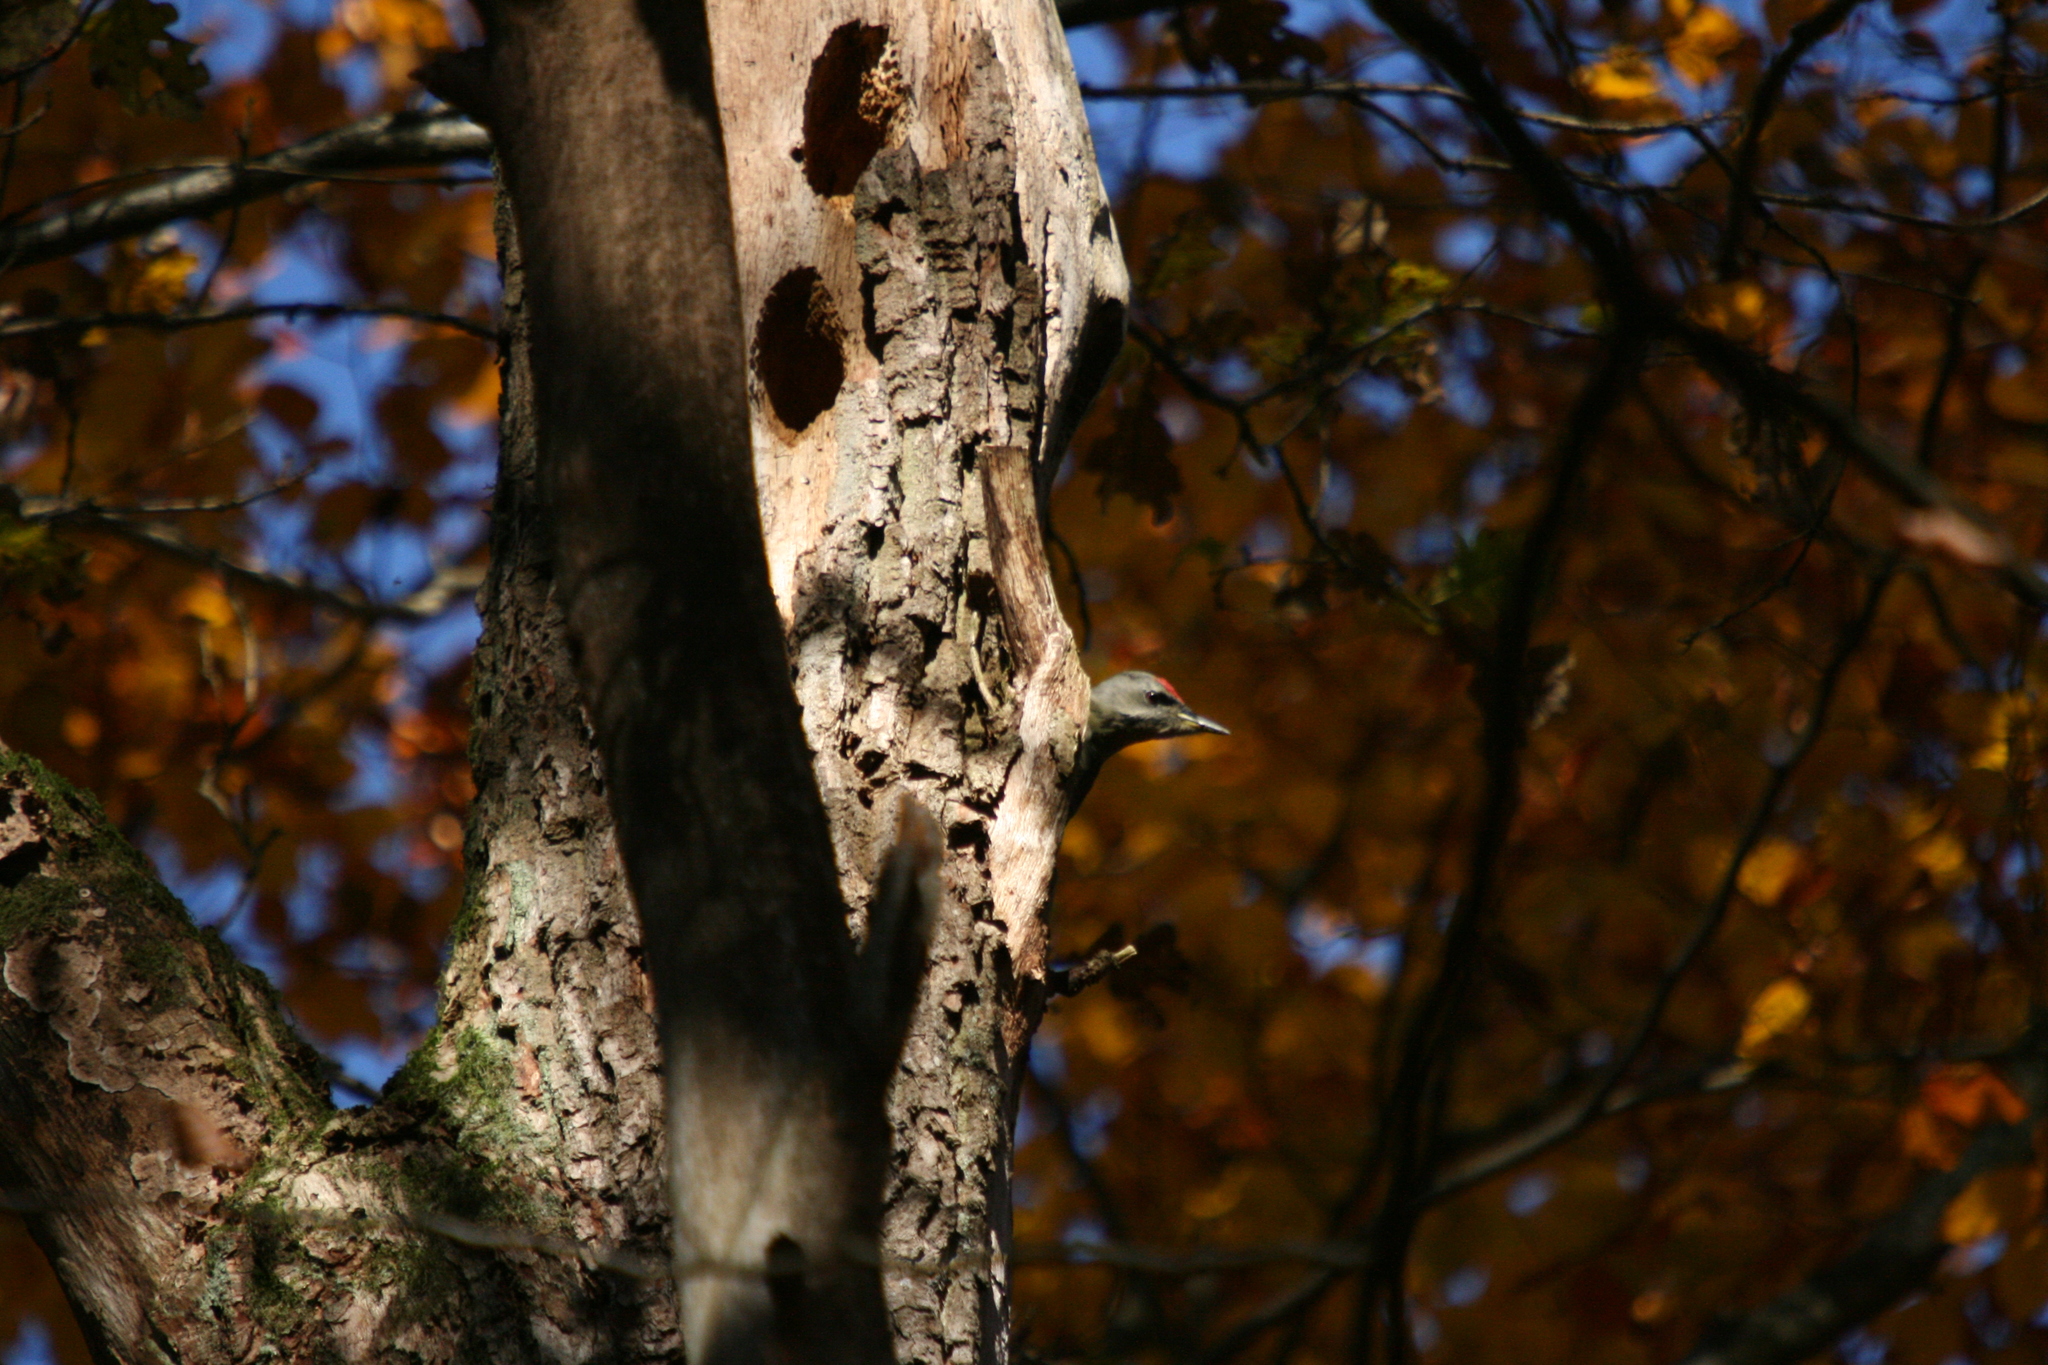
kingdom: Animalia
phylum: Chordata
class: Aves
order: Piciformes
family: Picidae
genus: Picus
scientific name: Picus canus
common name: Grey-headed woodpecker
